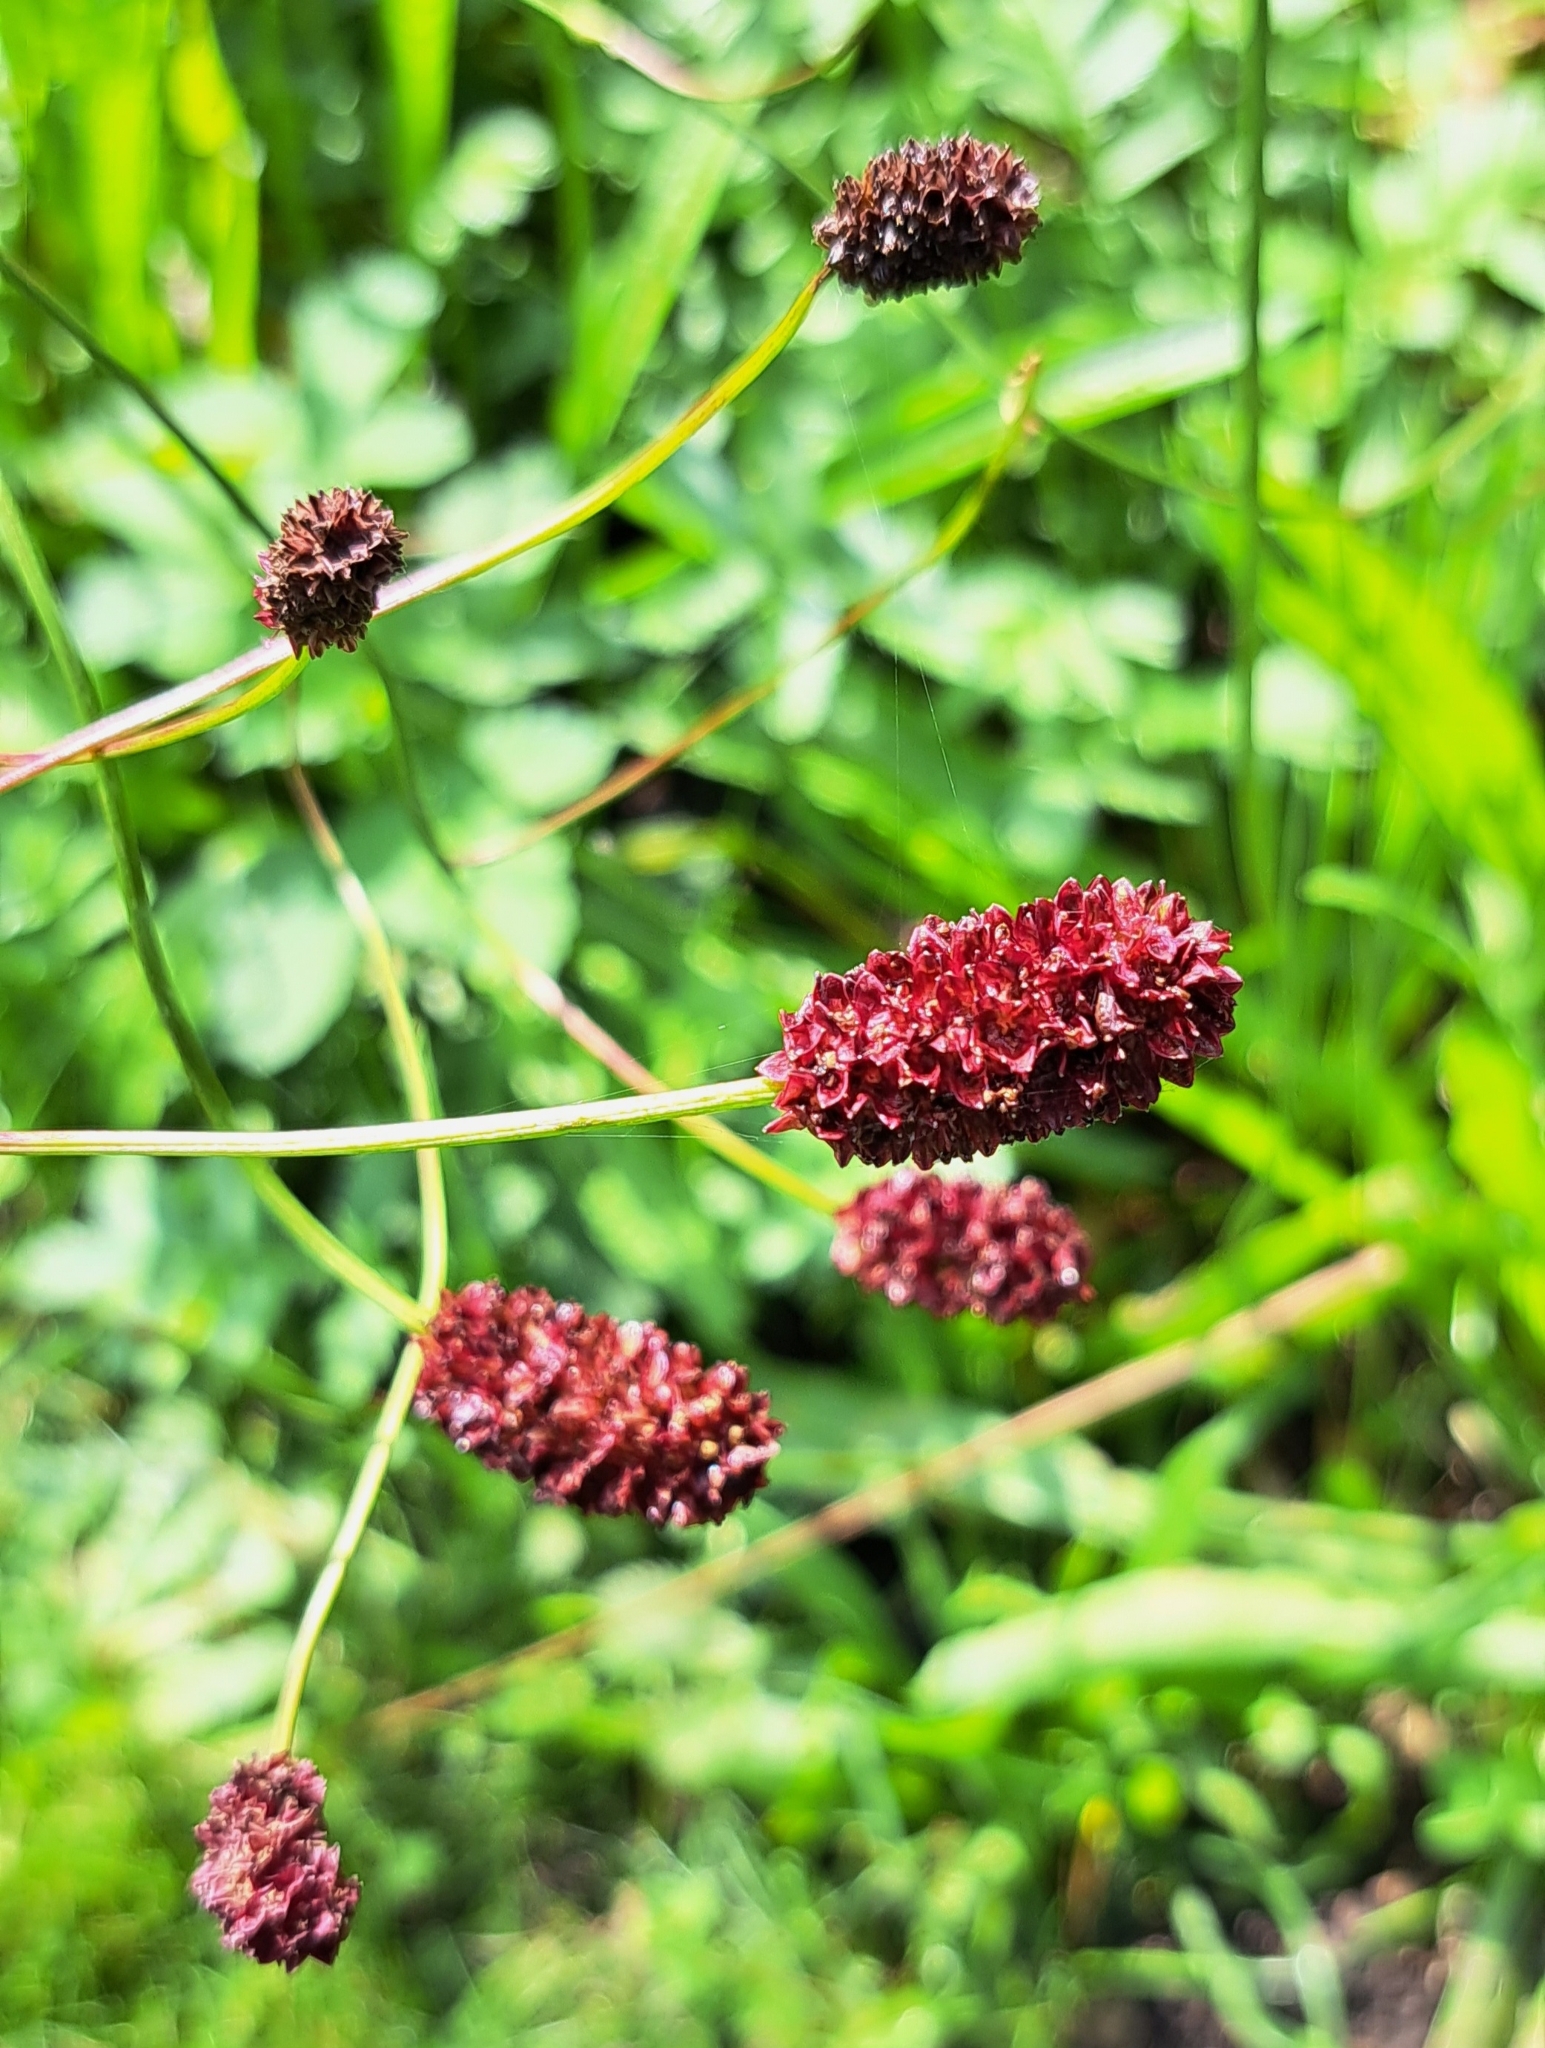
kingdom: Plantae
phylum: Tracheophyta
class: Magnoliopsida
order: Rosales
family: Rosaceae
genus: Sanguisorba
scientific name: Sanguisorba officinalis
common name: Great burnet
